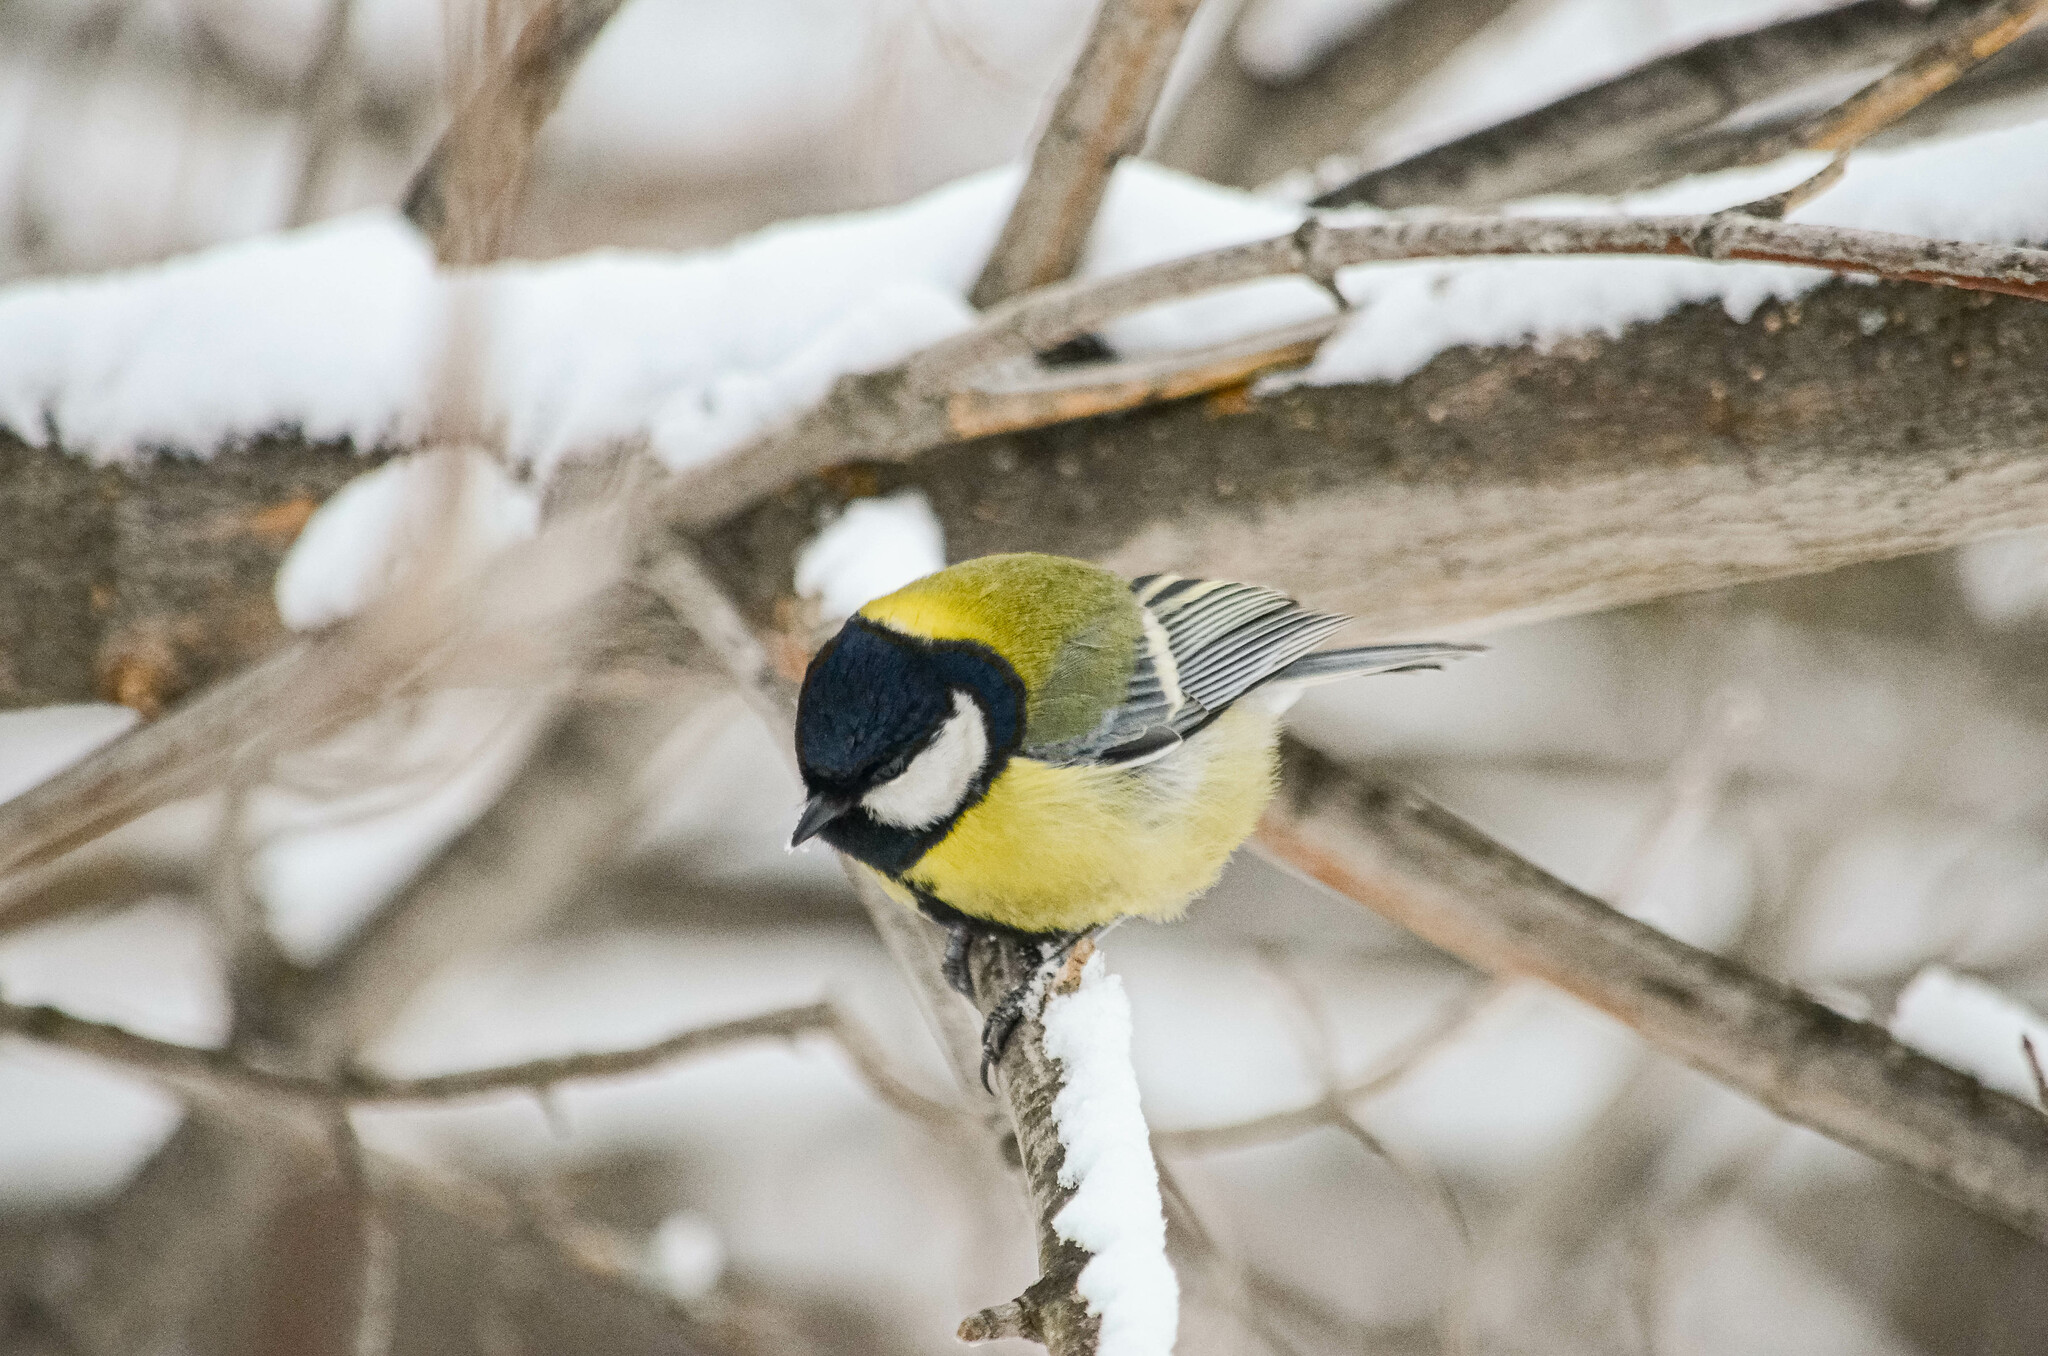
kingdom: Animalia
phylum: Chordata
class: Aves
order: Passeriformes
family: Paridae
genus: Parus
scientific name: Parus major
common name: Great tit
